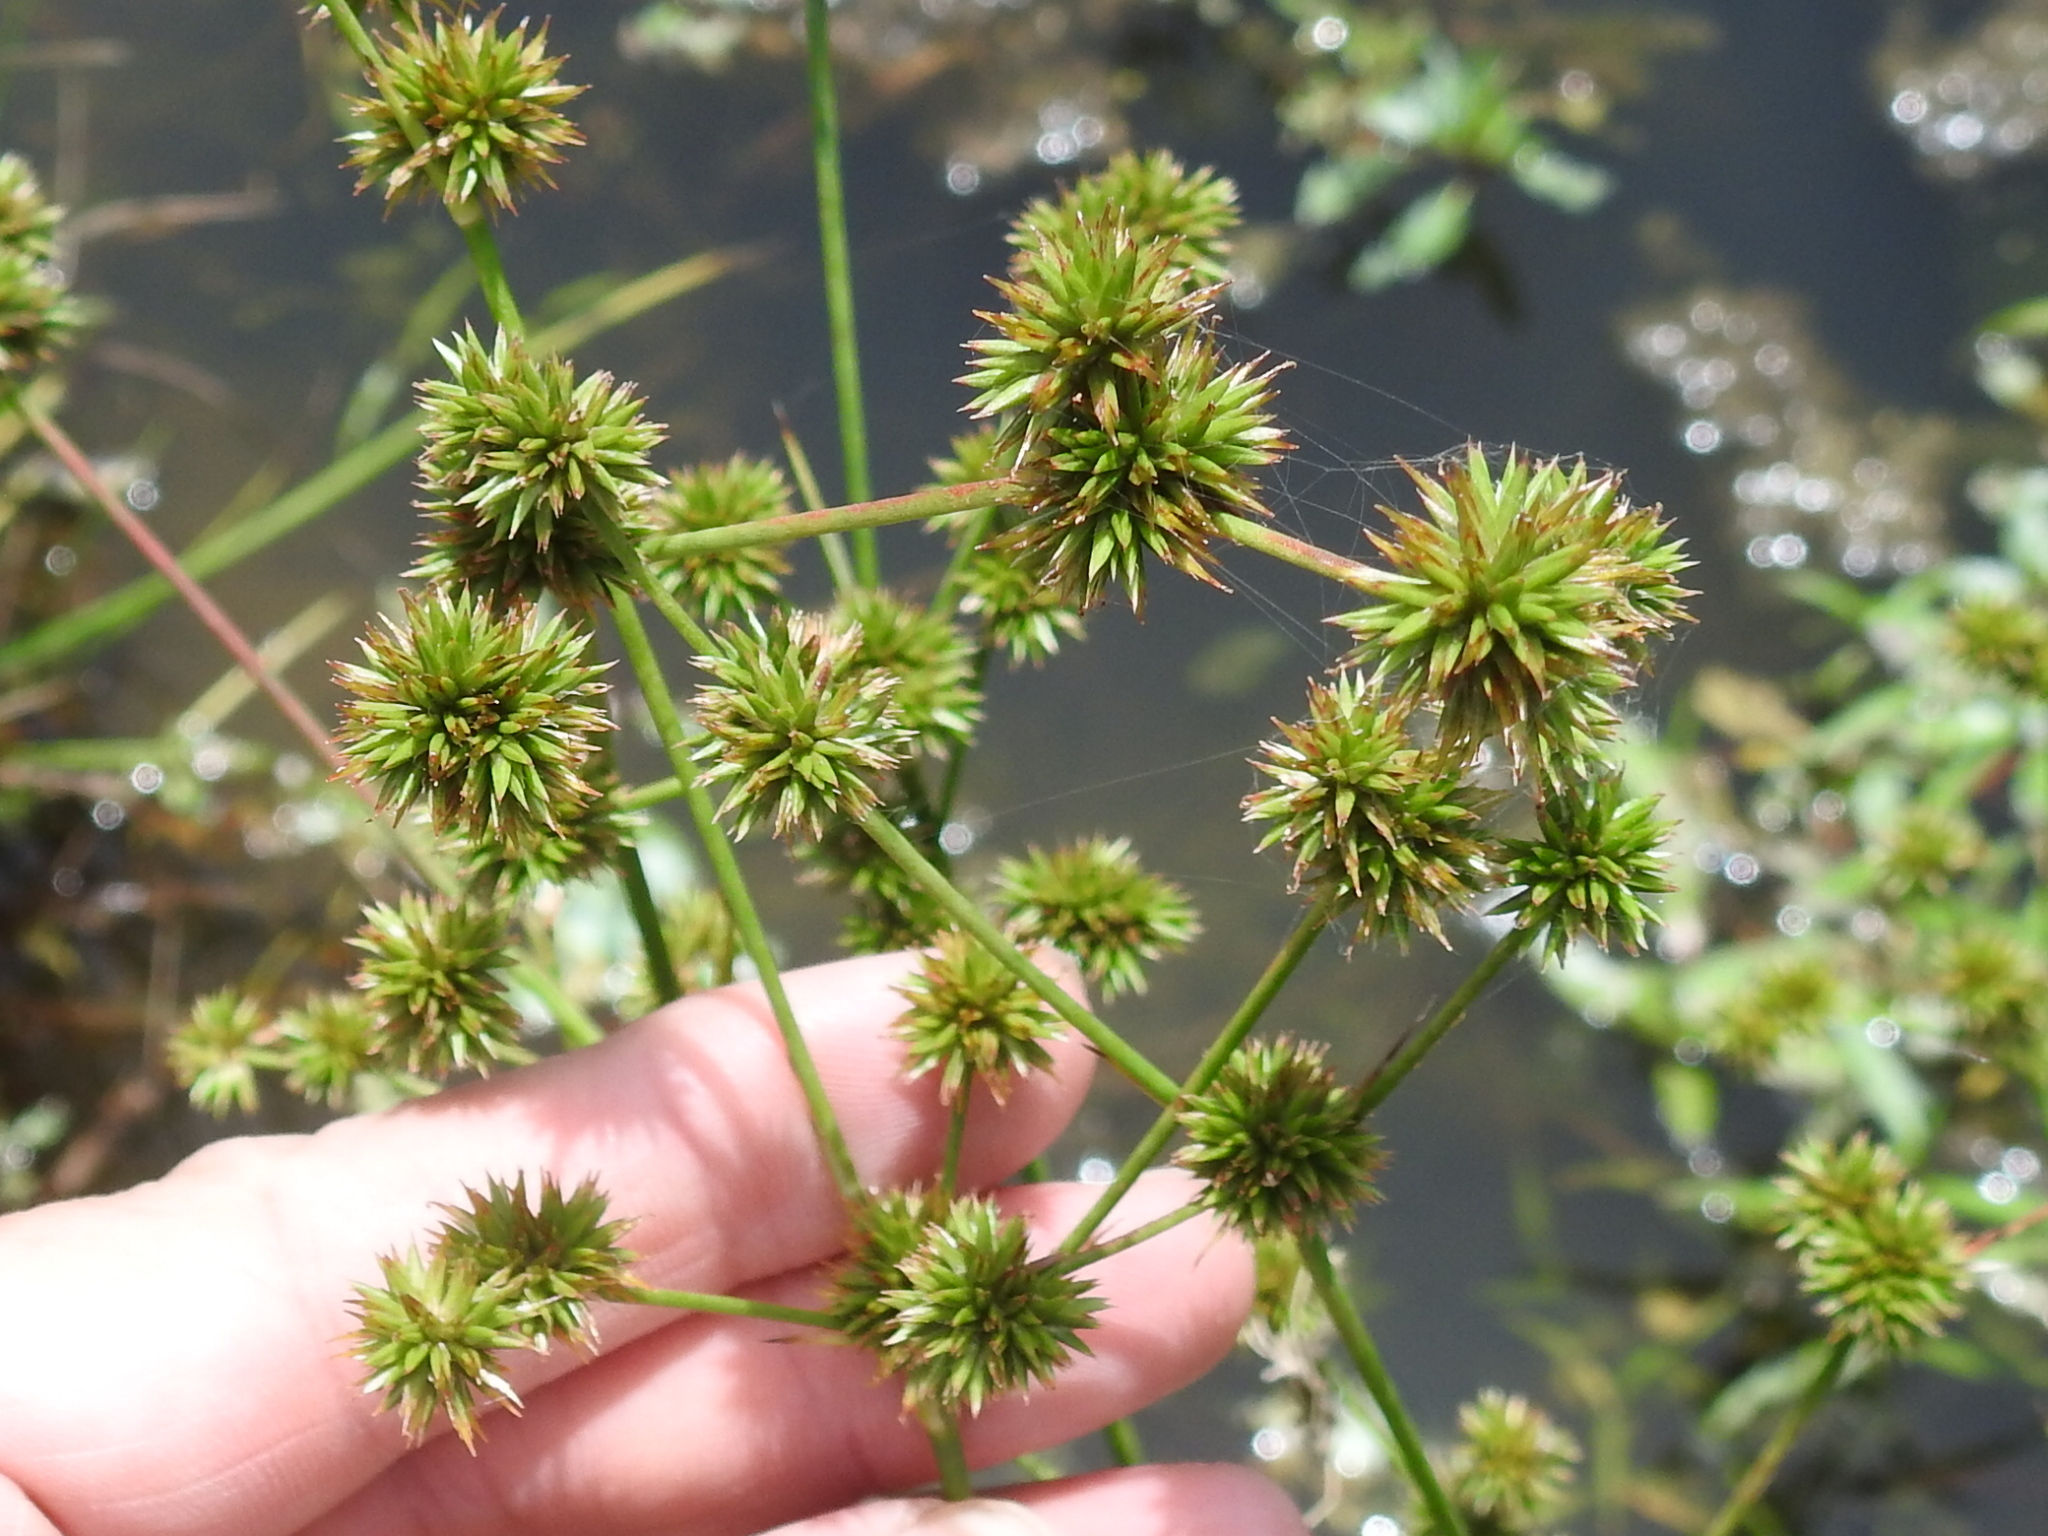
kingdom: Plantae
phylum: Tracheophyta
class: Liliopsida
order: Poales
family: Juncaceae
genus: Juncus
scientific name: Juncus validus
